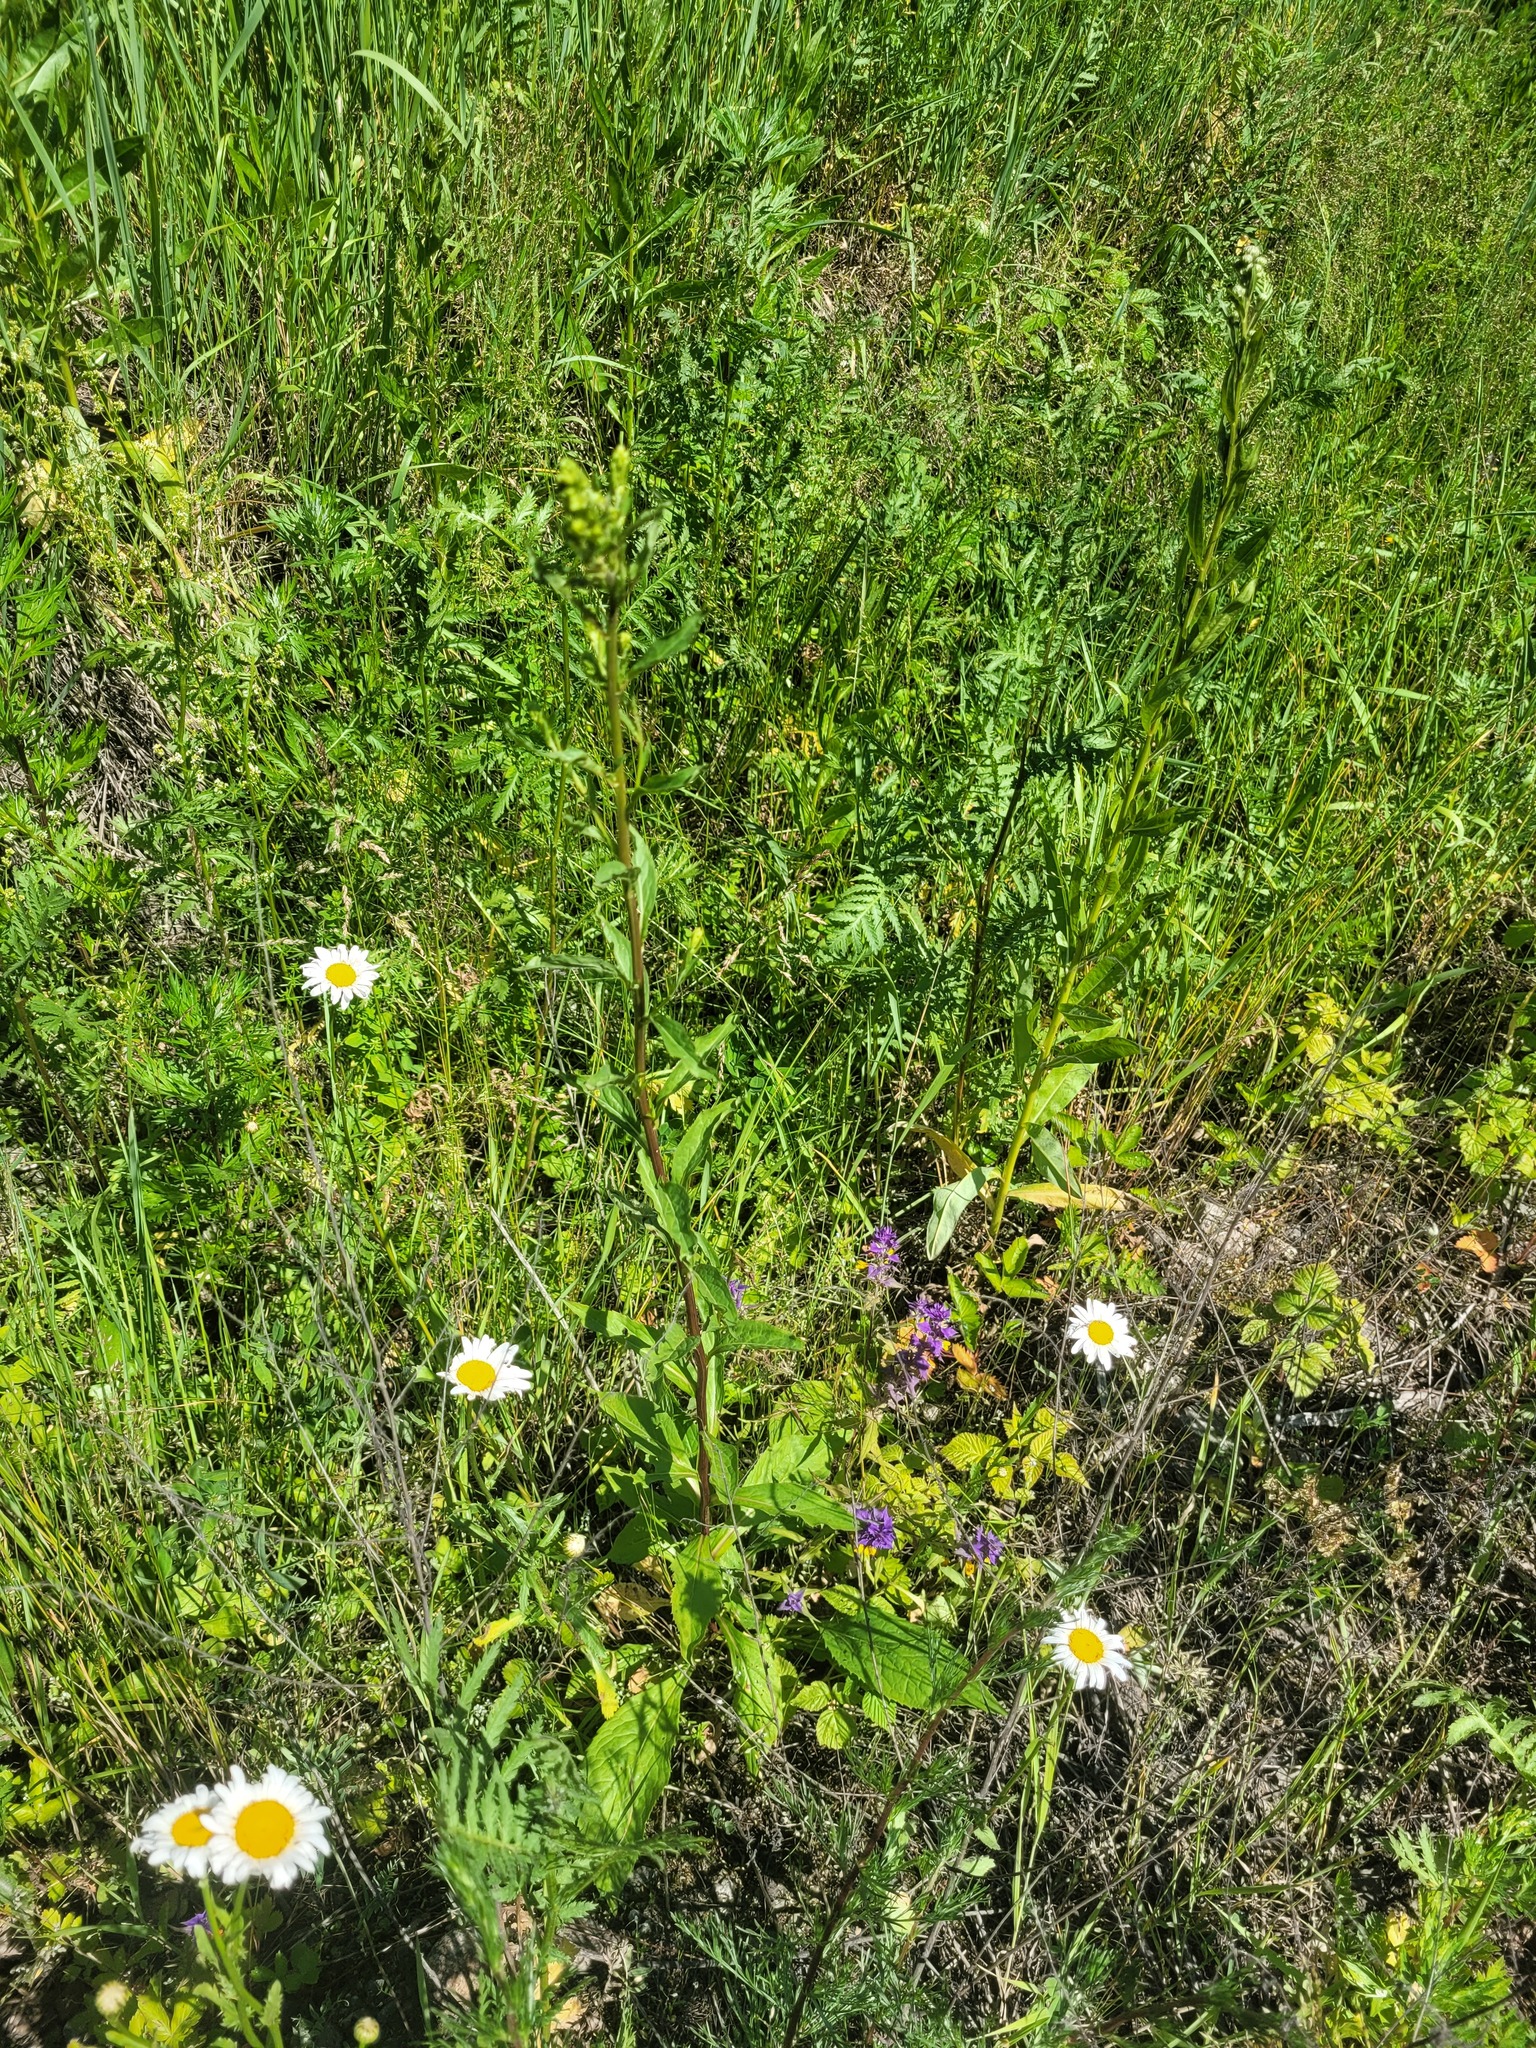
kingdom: Plantae
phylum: Tracheophyta
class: Magnoliopsida
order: Asterales
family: Asteraceae
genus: Solidago
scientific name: Solidago virgaurea
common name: Goldenrod
